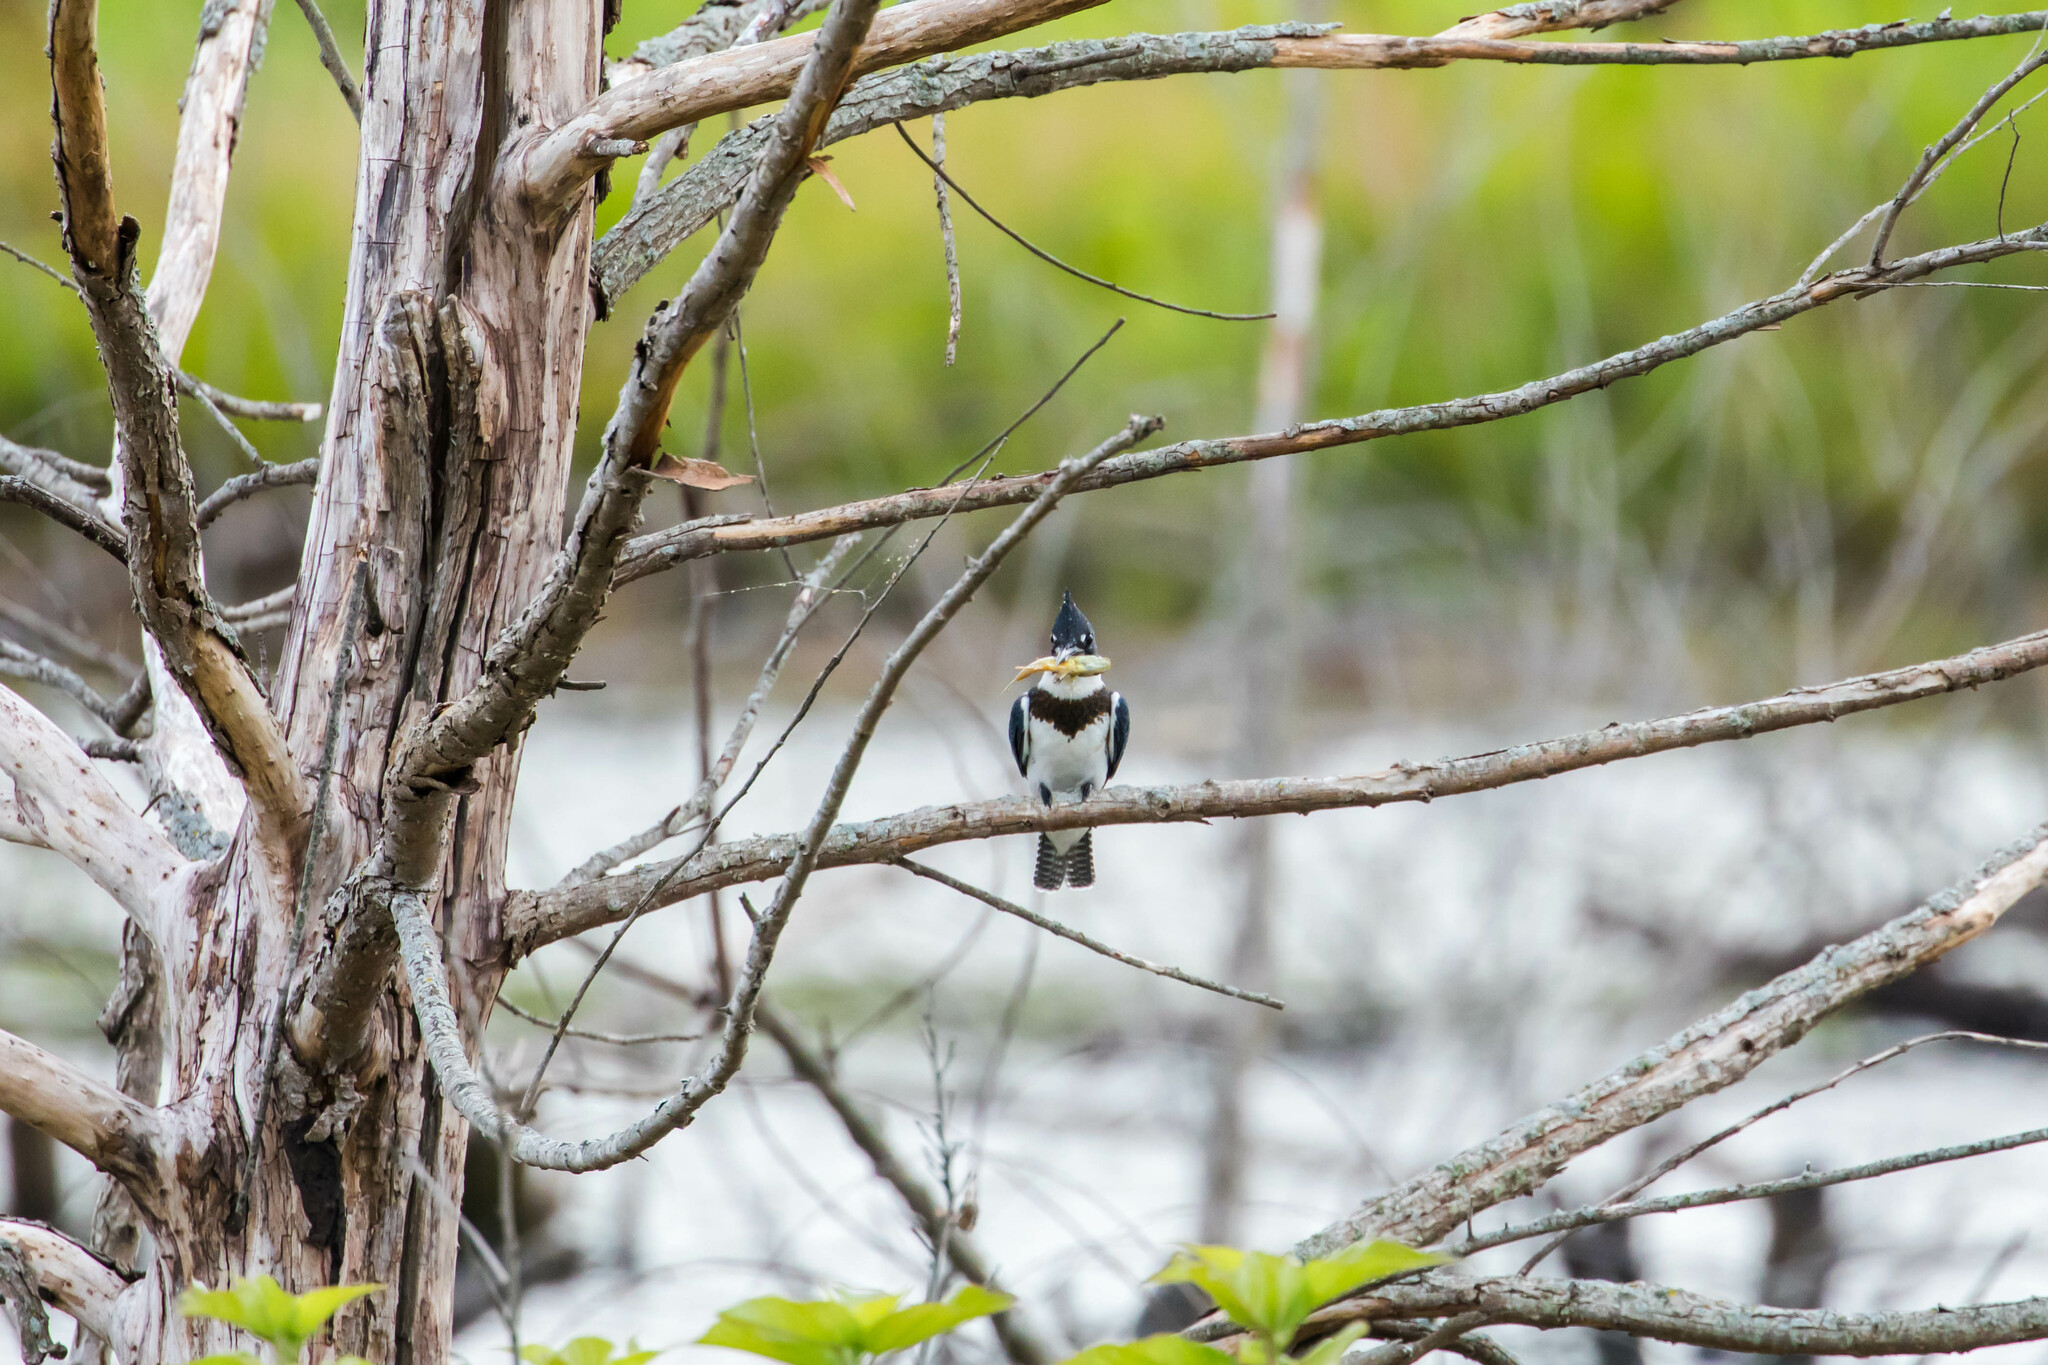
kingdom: Animalia
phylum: Chordata
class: Aves
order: Coraciiformes
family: Alcedinidae
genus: Megaceryle
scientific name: Megaceryle alcyon
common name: Belted kingfisher
